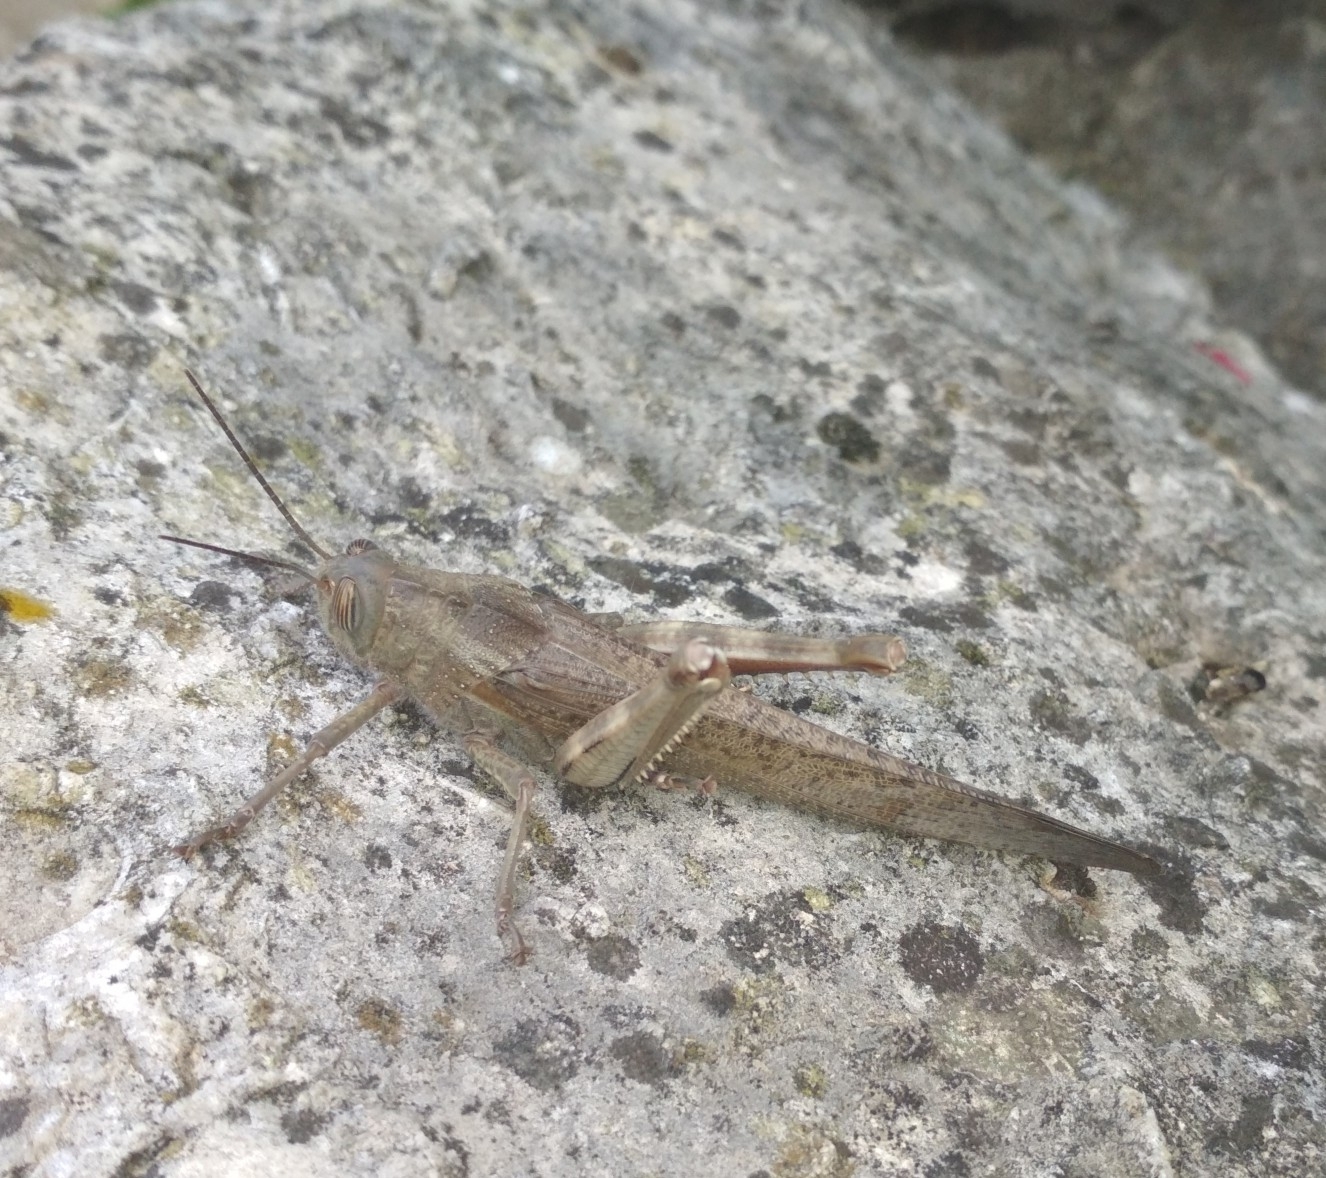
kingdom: Animalia
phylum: Arthropoda
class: Insecta
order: Orthoptera
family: Acrididae
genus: Anacridium
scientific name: Anacridium aegyptium
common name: Egyptian grasshopper
